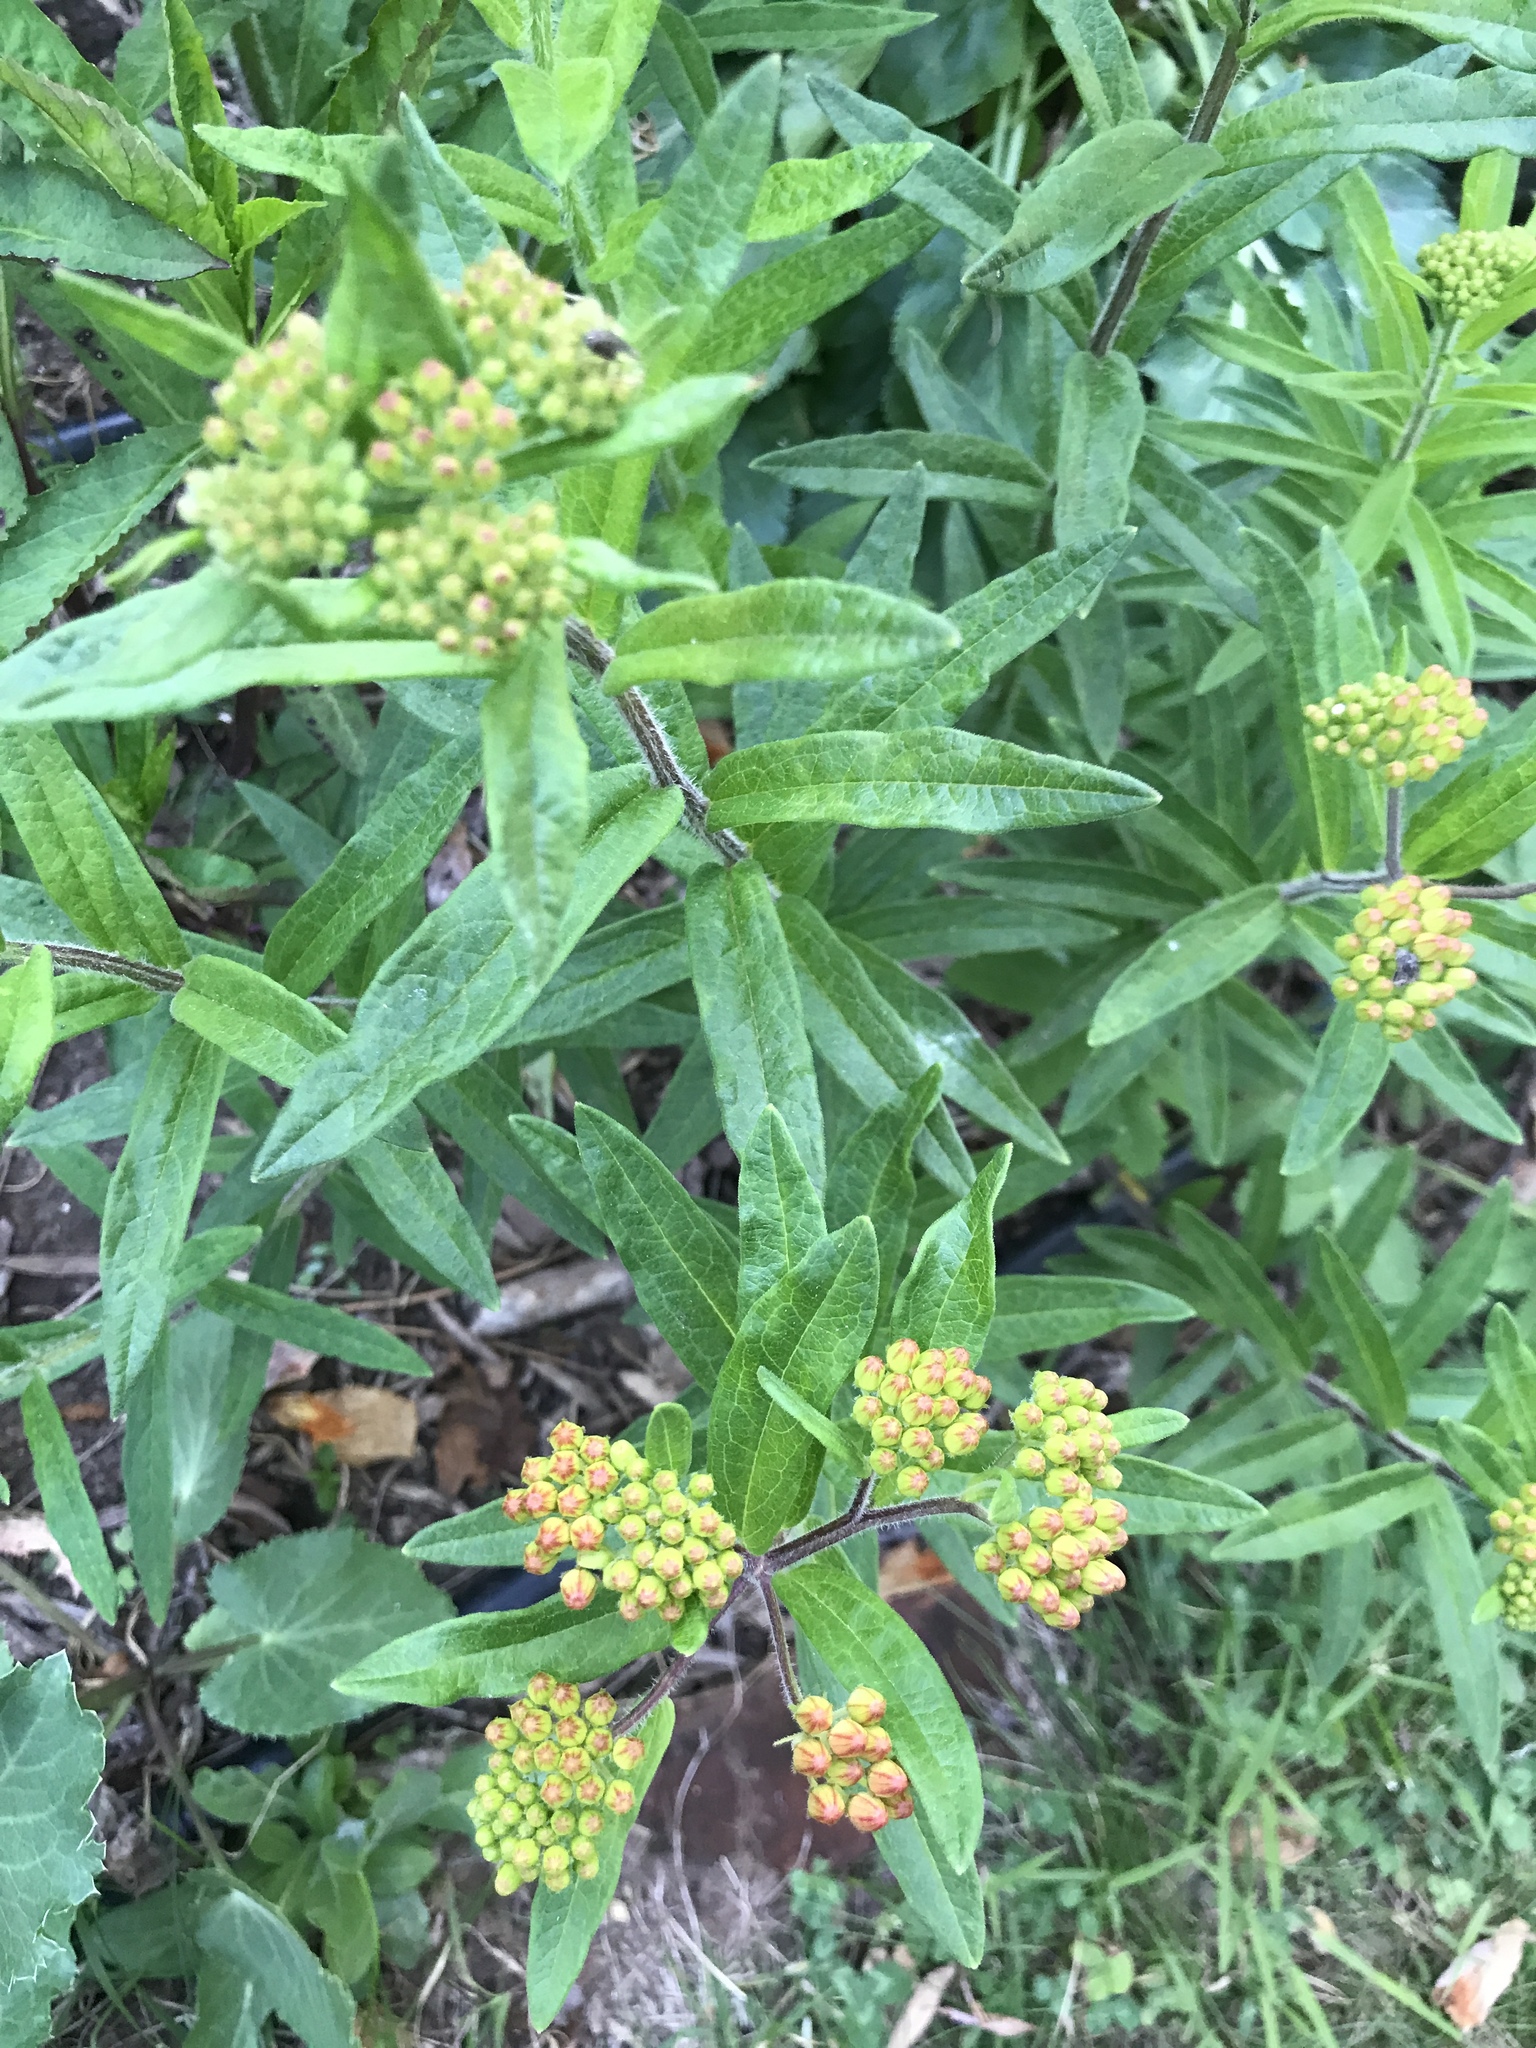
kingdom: Plantae
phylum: Tracheophyta
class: Magnoliopsida
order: Gentianales
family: Apocynaceae
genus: Asclepias
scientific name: Asclepias tuberosa
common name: Butterfly milkweed
